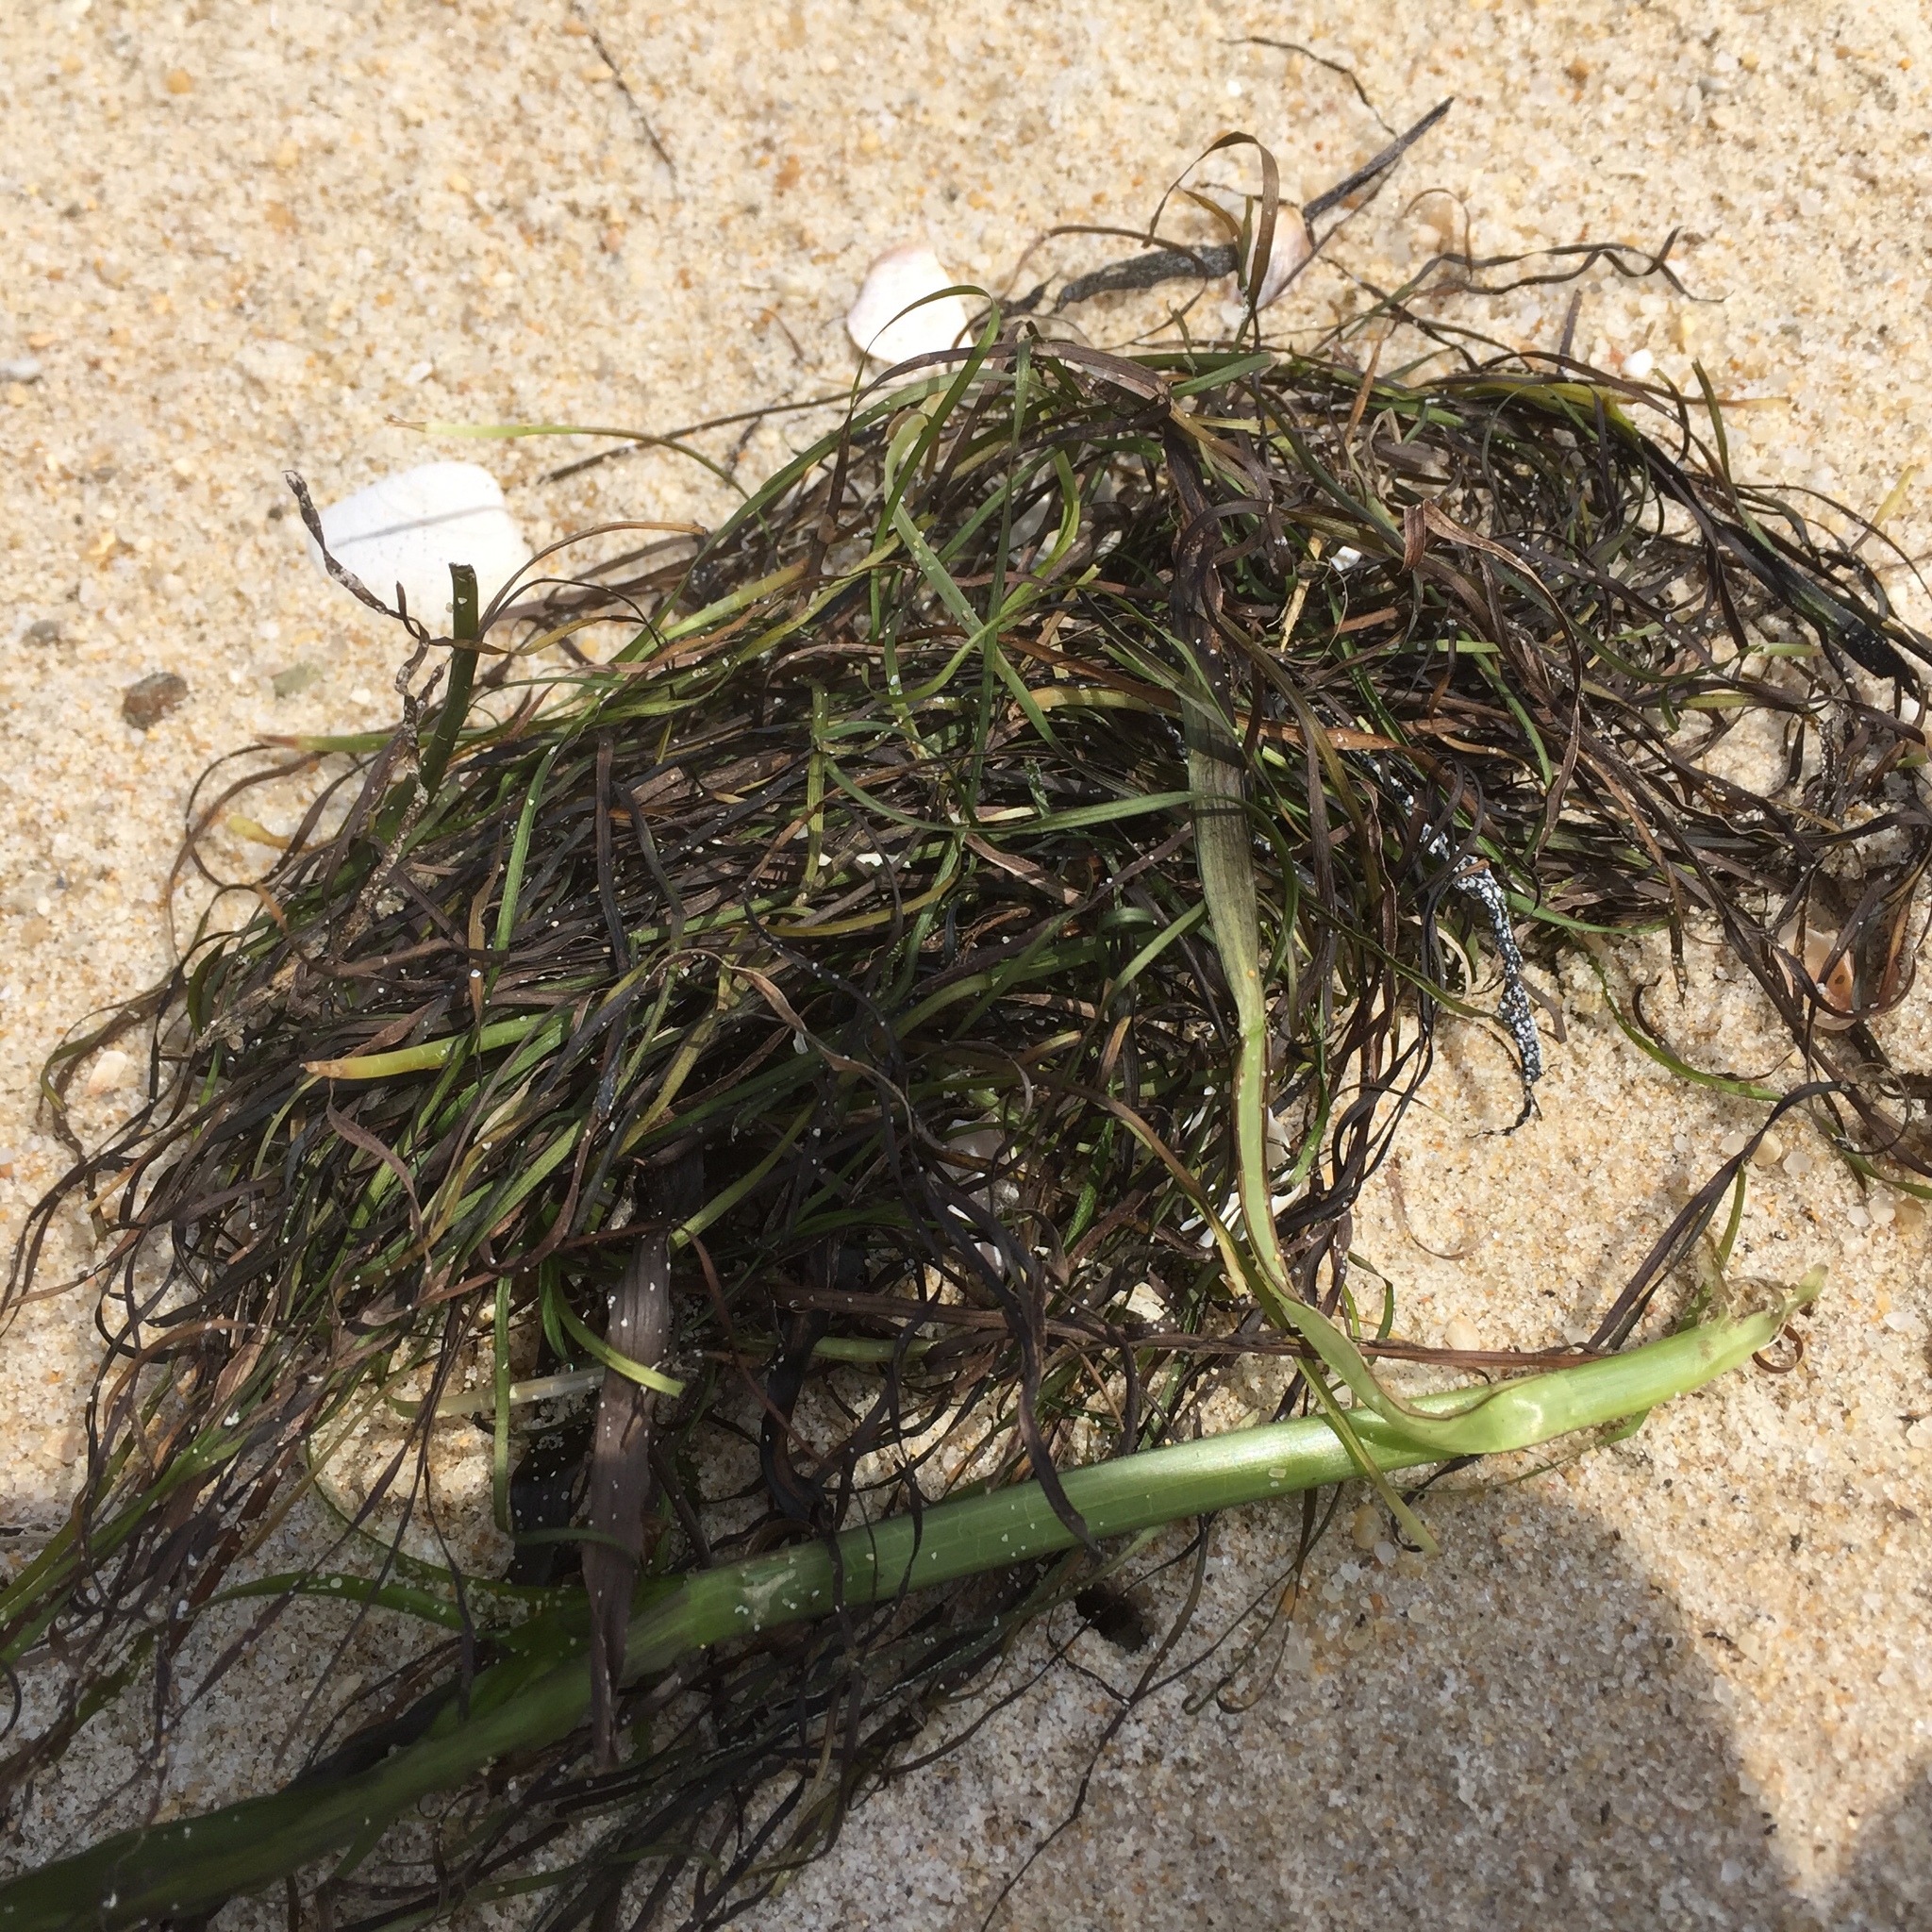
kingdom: Plantae
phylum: Tracheophyta
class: Liliopsida
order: Alismatales
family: Zosteraceae
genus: Zostera
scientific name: Zostera noltii
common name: Dwarf eelgrass
